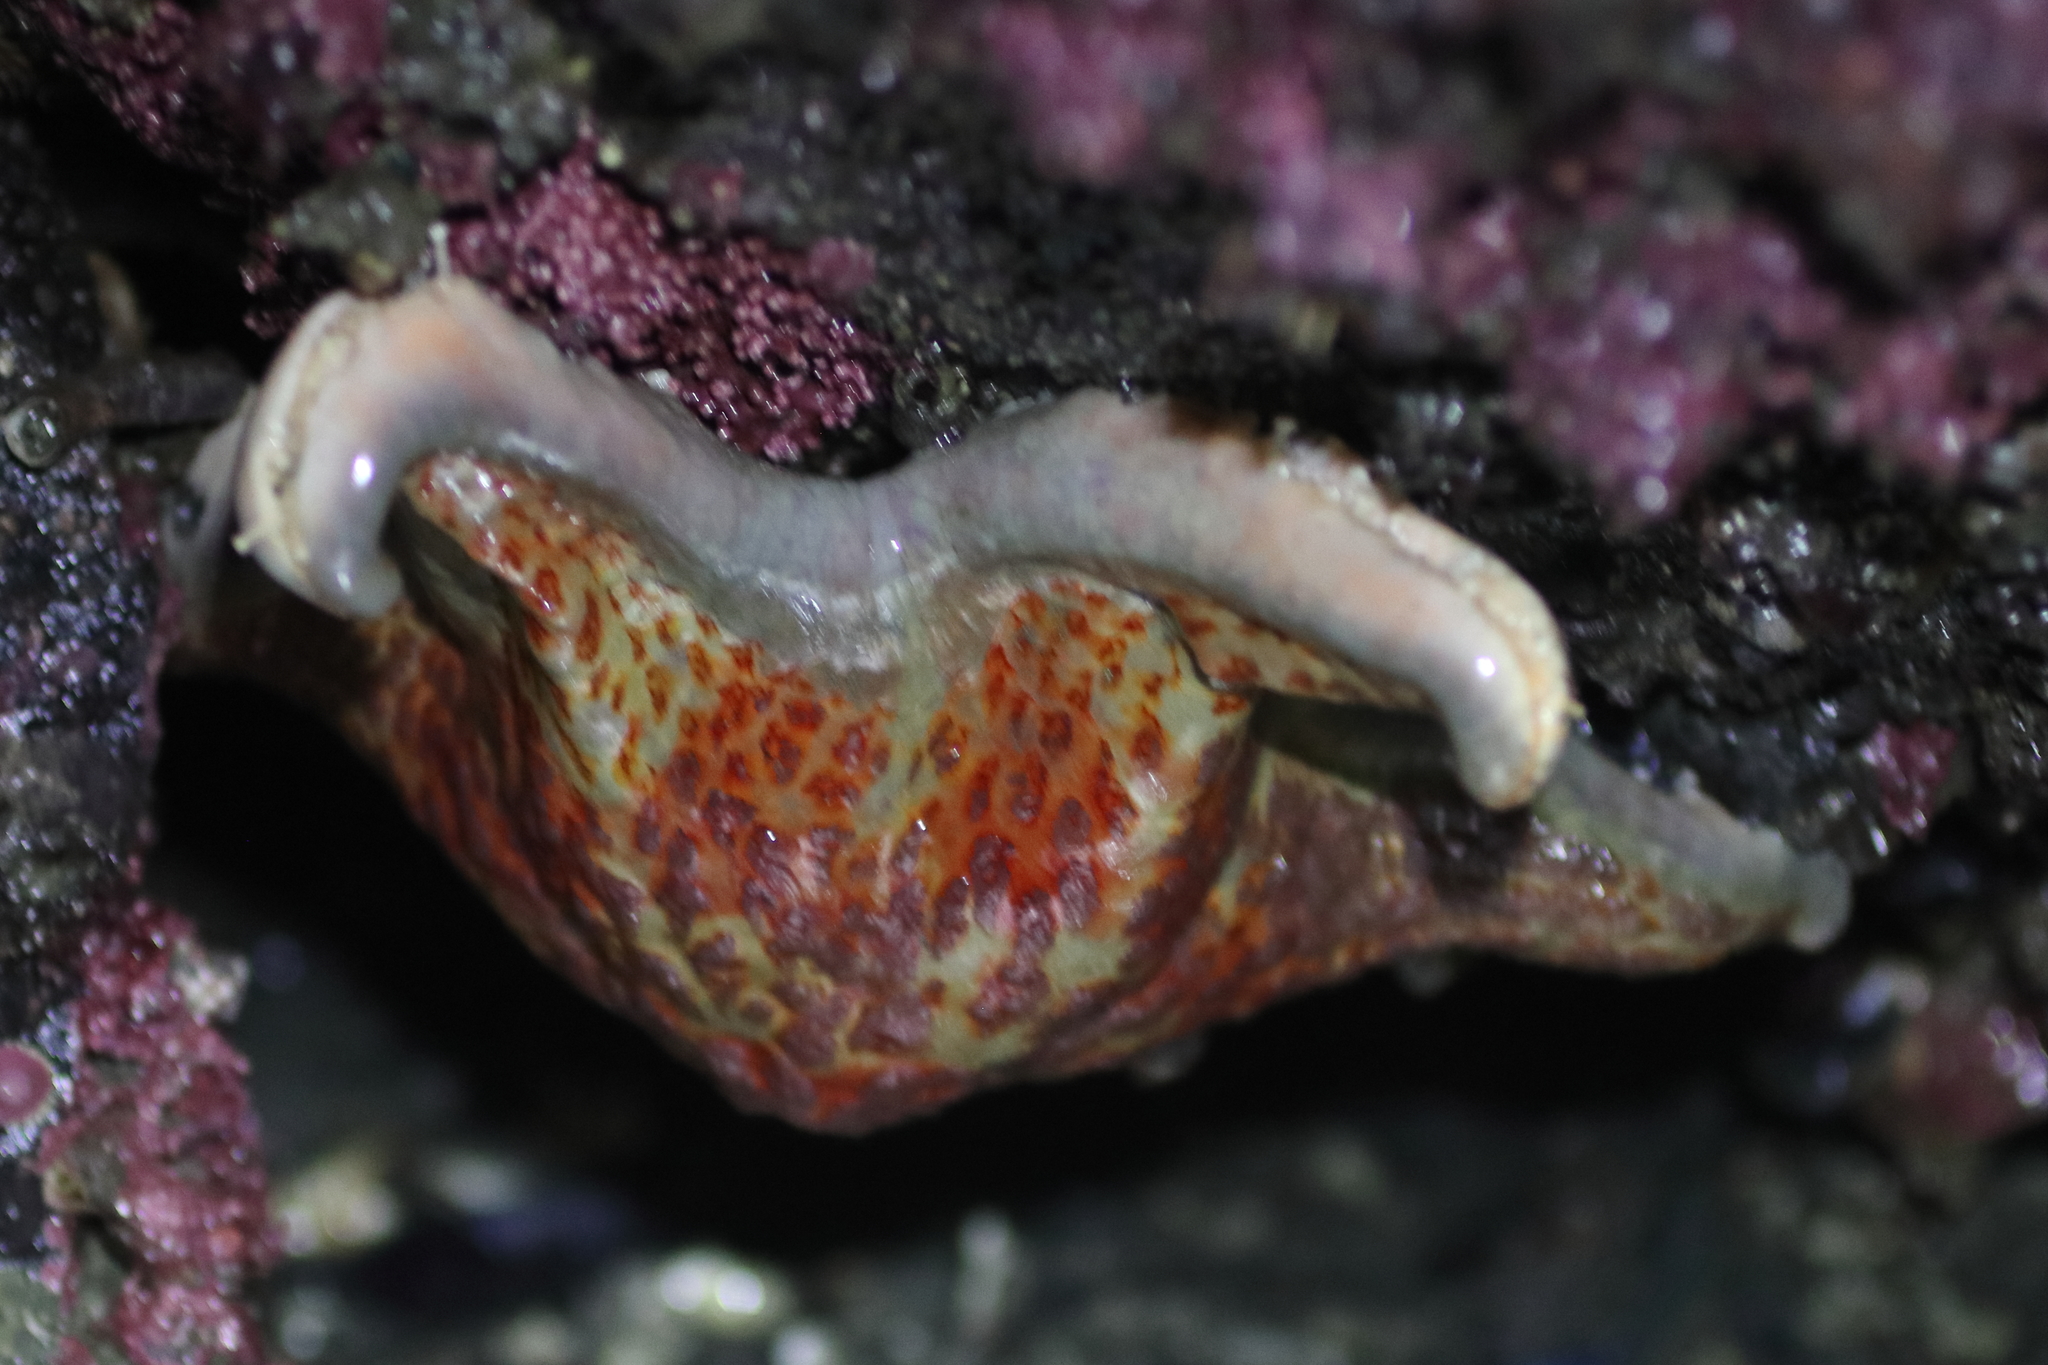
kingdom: Animalia
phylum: Echinodermata
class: Asteroidea
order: Valvatida
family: Asteropseidae
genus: Dermasterias
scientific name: Dermasterias imbricata
